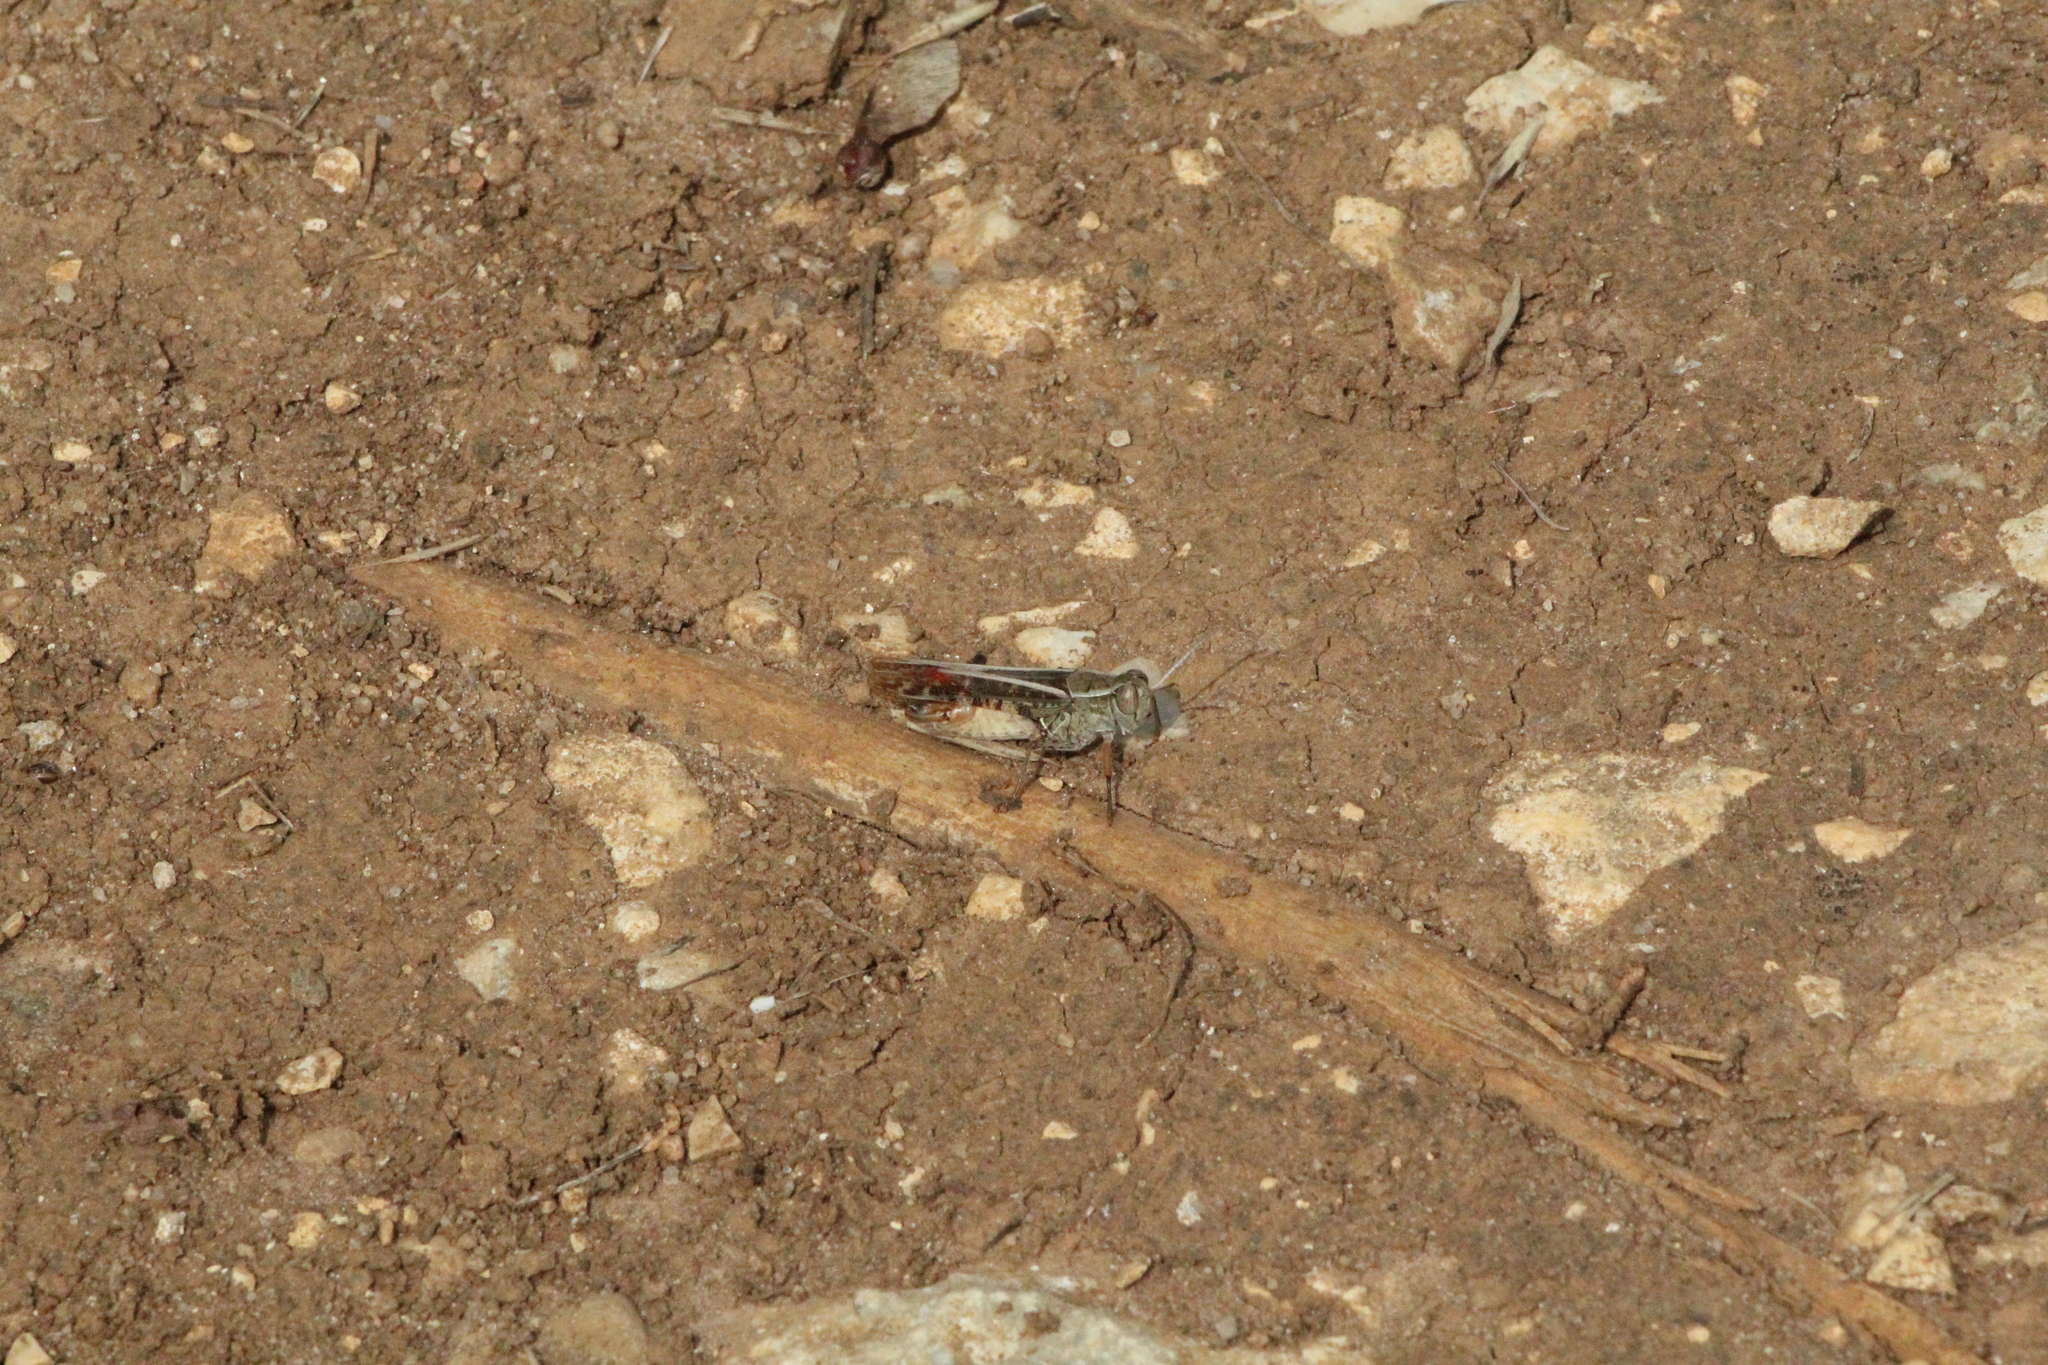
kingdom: Animalia
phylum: Arthropoda
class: Insecta
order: Orthoptera
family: Acrididae
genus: Calliptamus
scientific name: Calliptamus italicus
